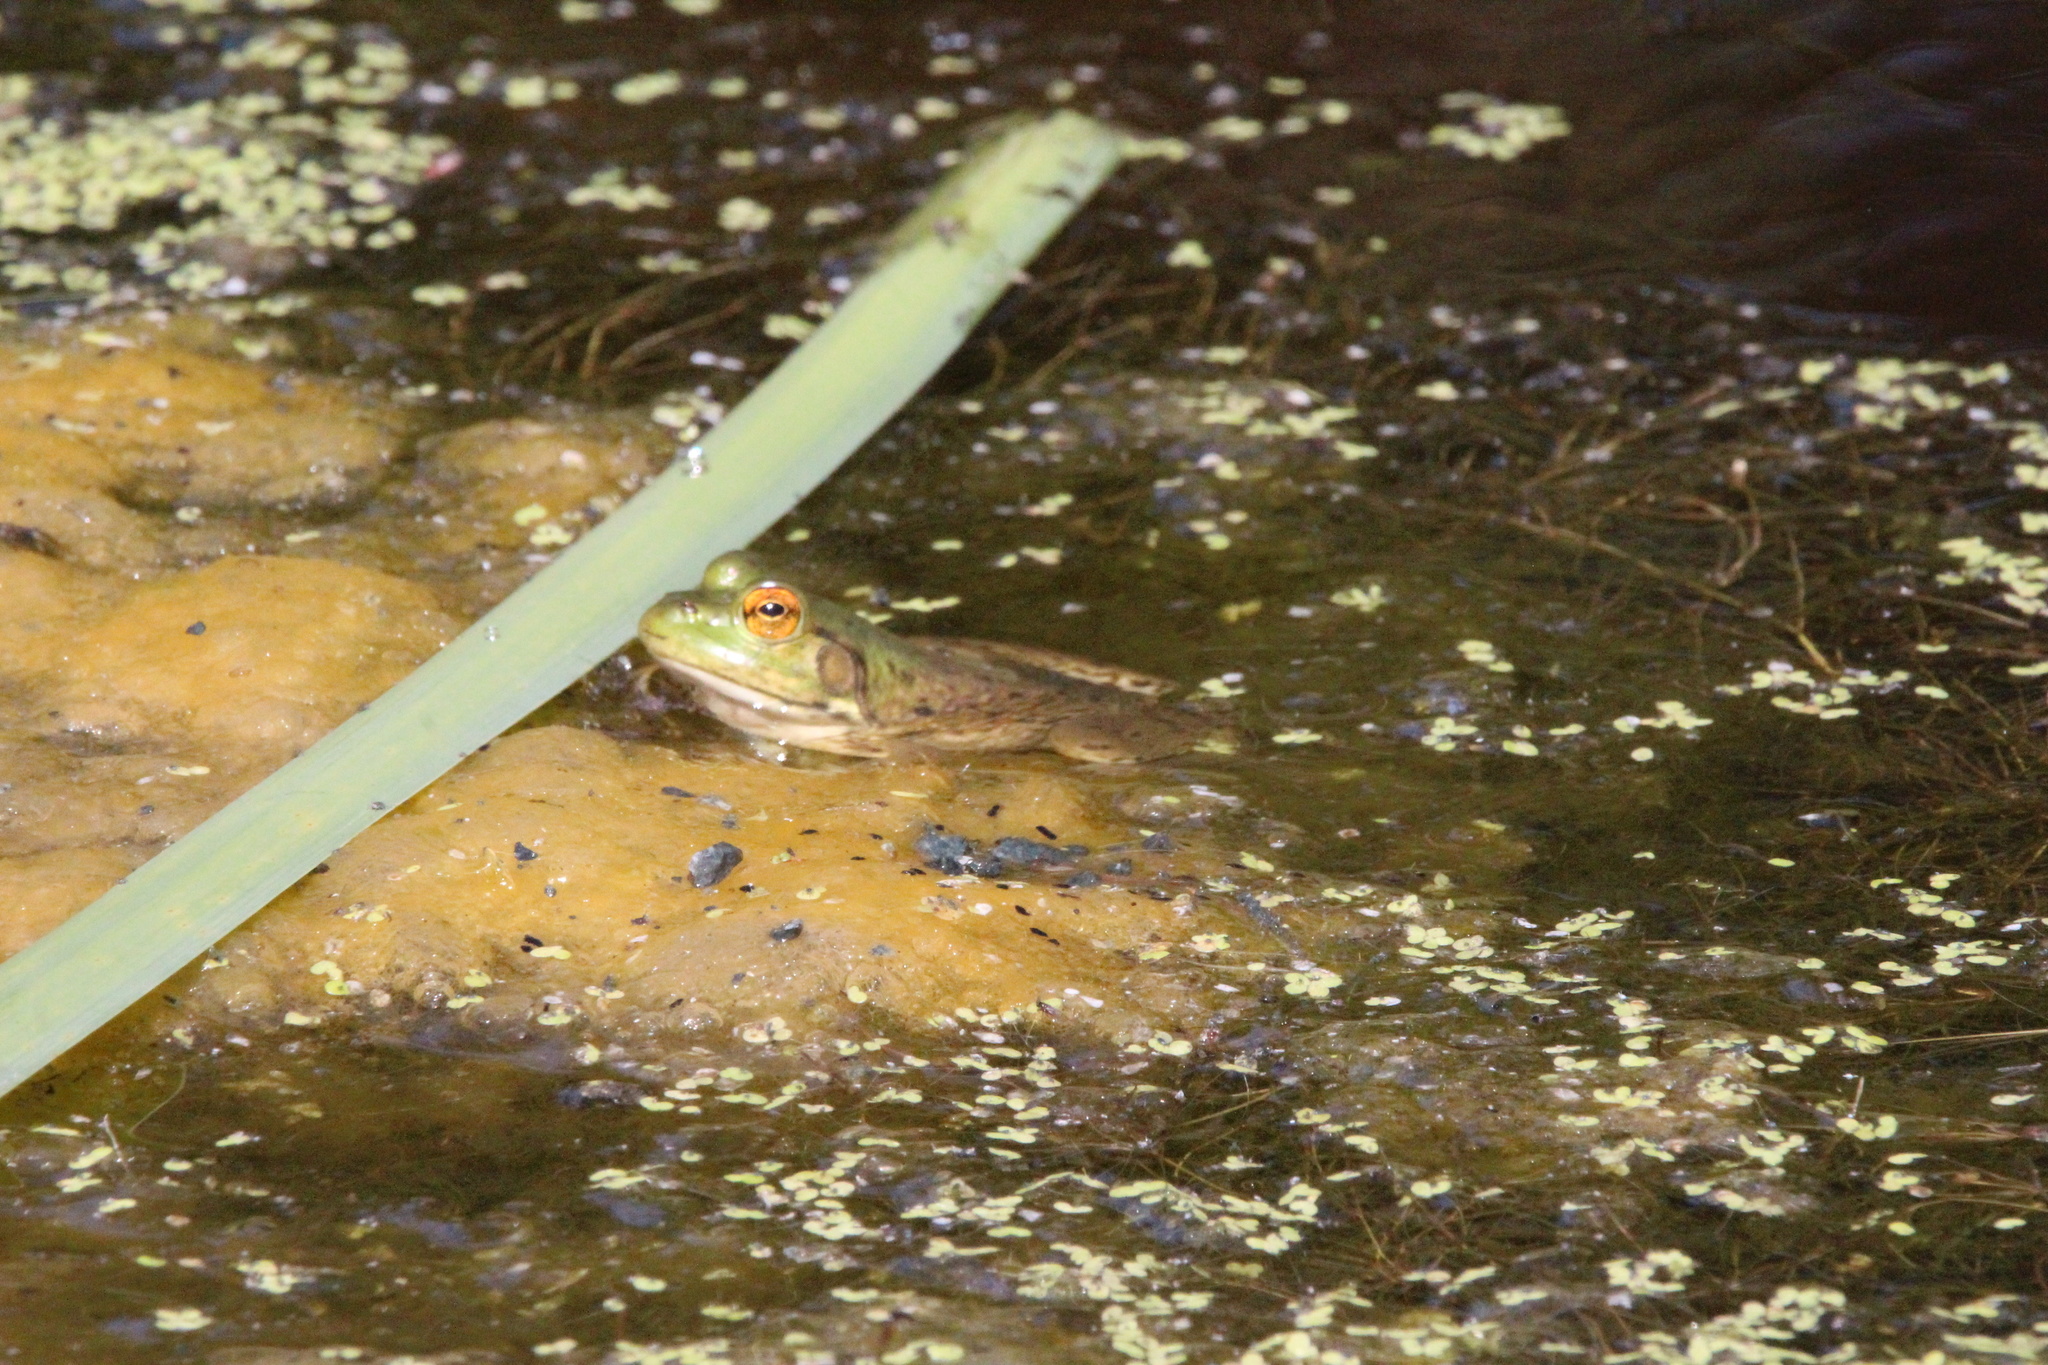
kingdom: Animalia
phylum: Chordata
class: Amphibia
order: Anura
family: Ranidae
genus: Lithobates
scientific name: Lithobates catesbeianus
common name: American bullfrog
